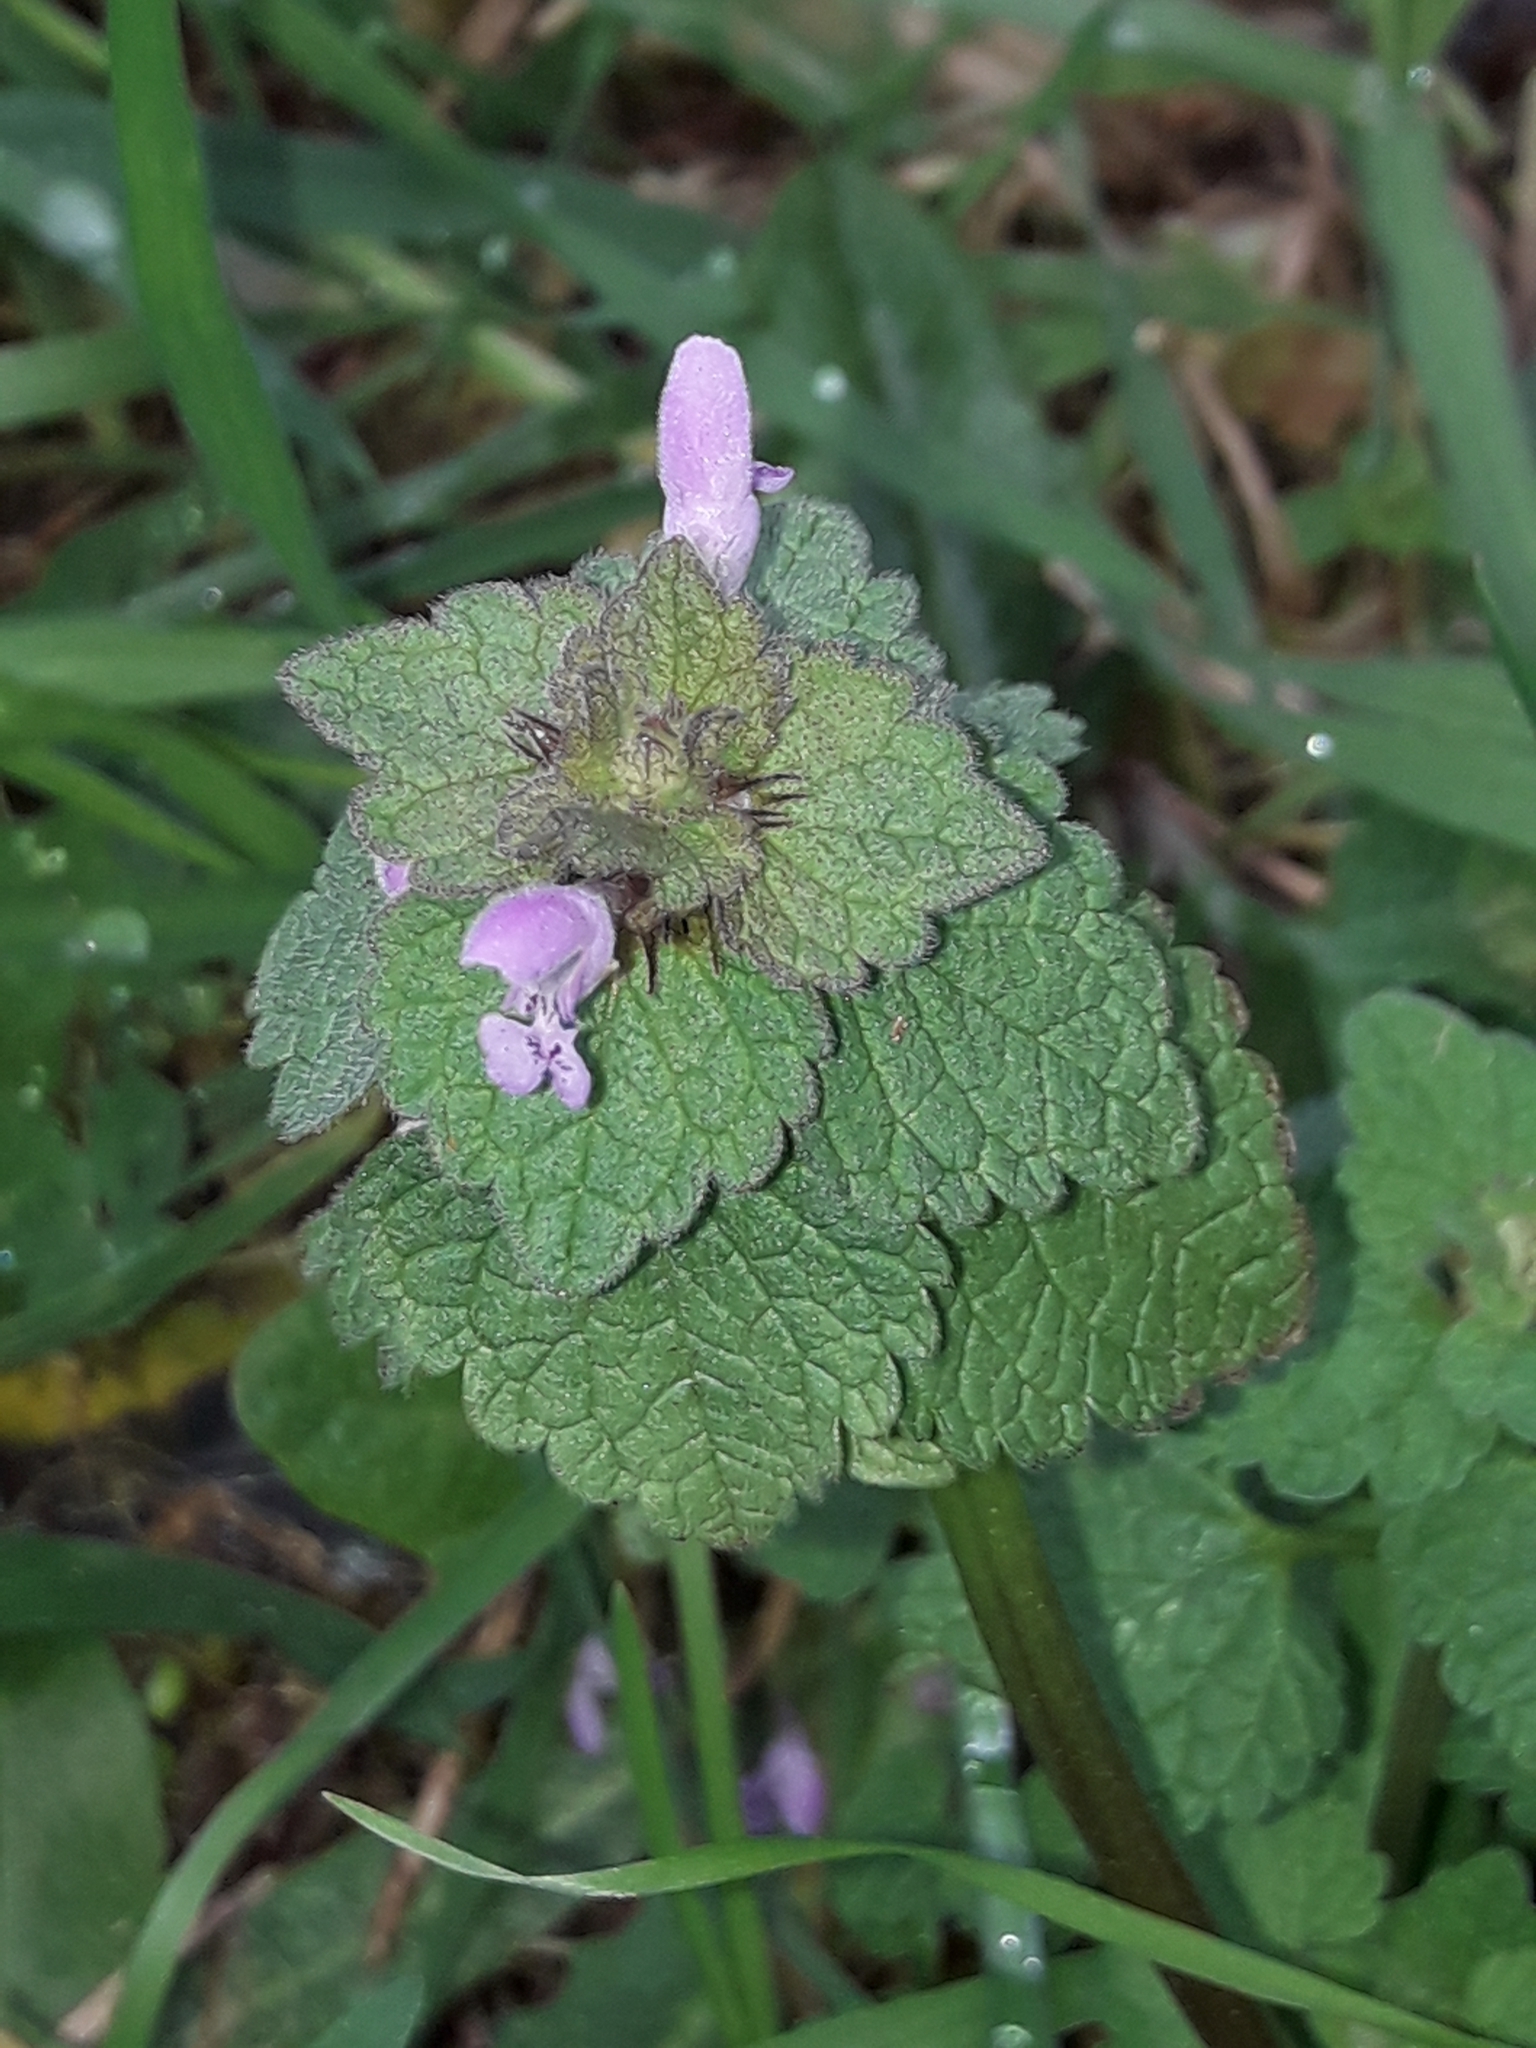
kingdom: Plantae
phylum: Tracheophyta
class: Magnoliopsida
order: Lamiales
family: Lamiaceae
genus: Lamium
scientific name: Lamium purpureum
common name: Red dead-nettle
